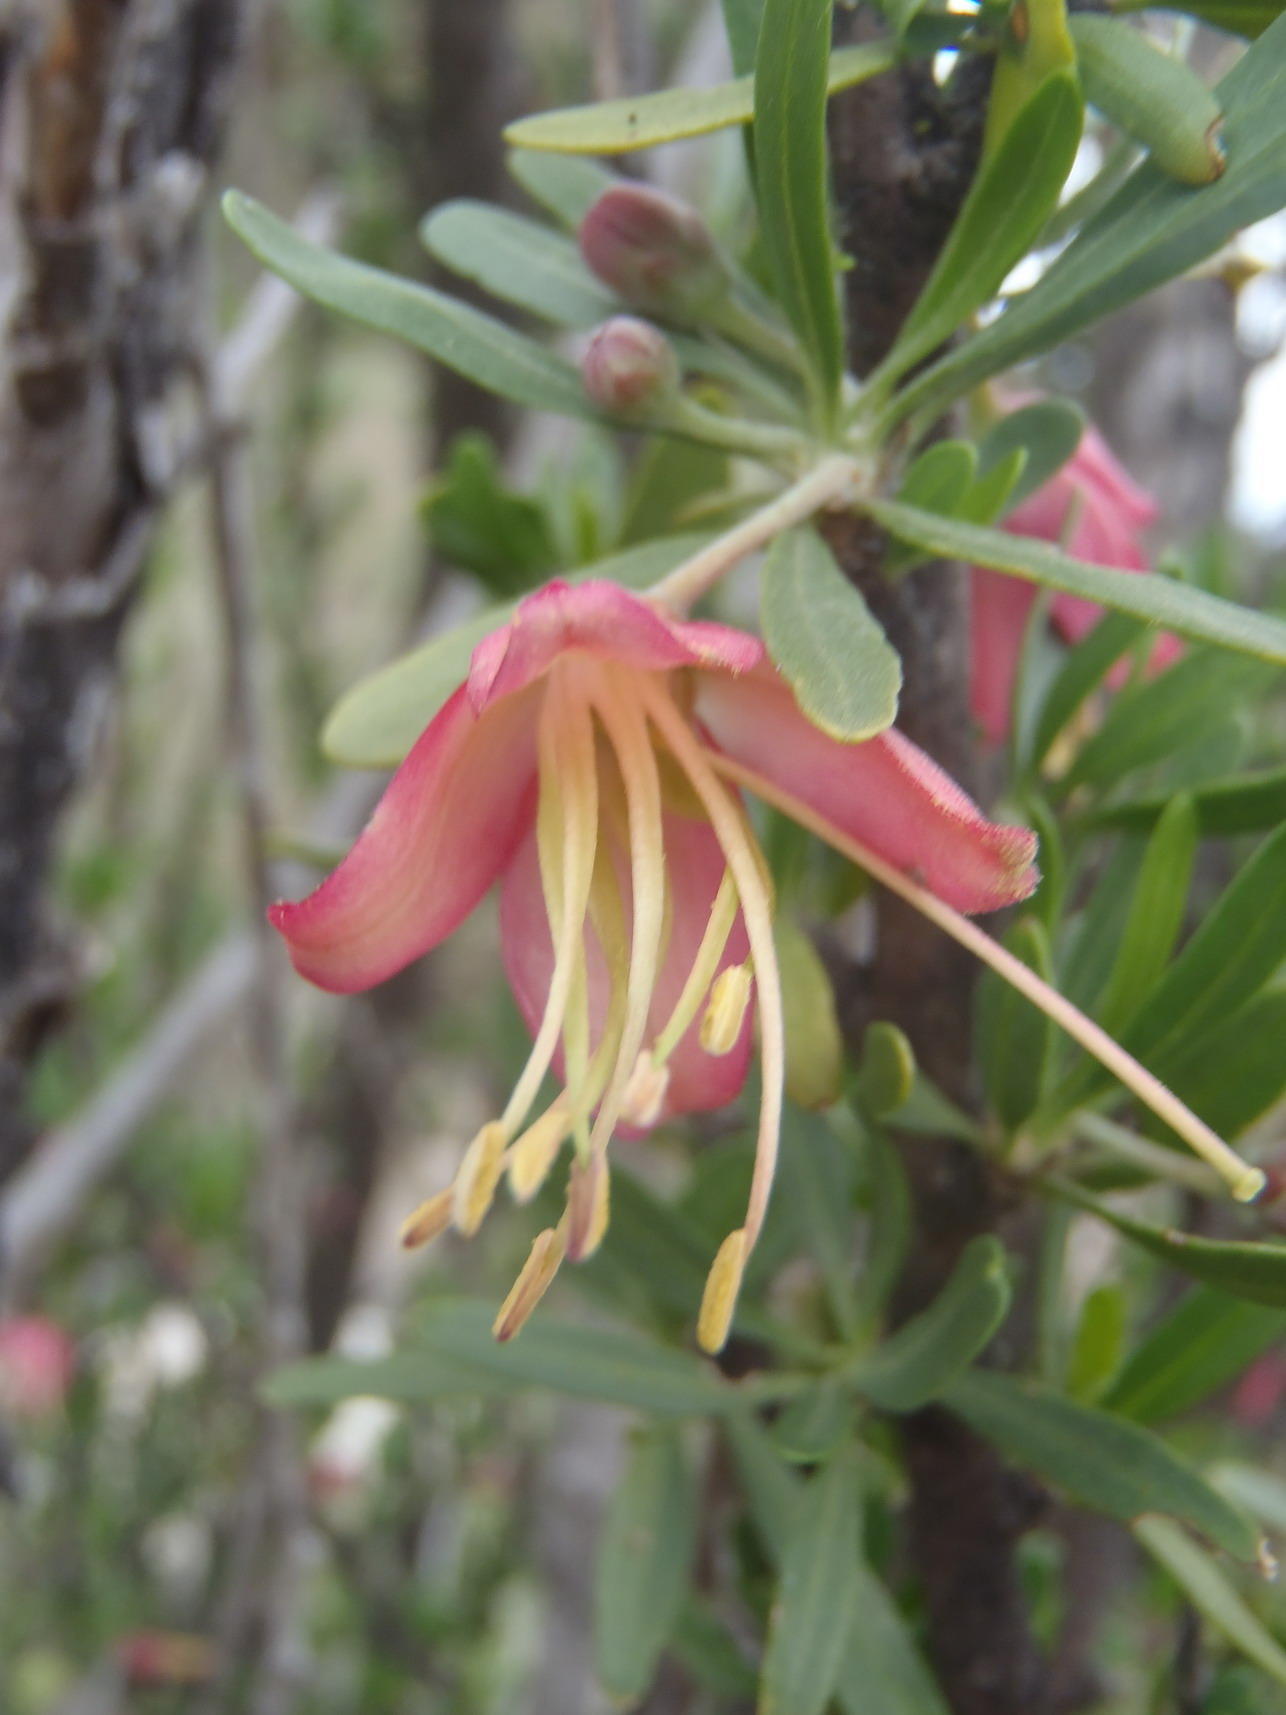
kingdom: Plantae
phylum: Tracheophyta
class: Magnoliopsida
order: Sapindales
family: Meliaceae
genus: Nymania
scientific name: Nymania capensis
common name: Chinese lantern tree
